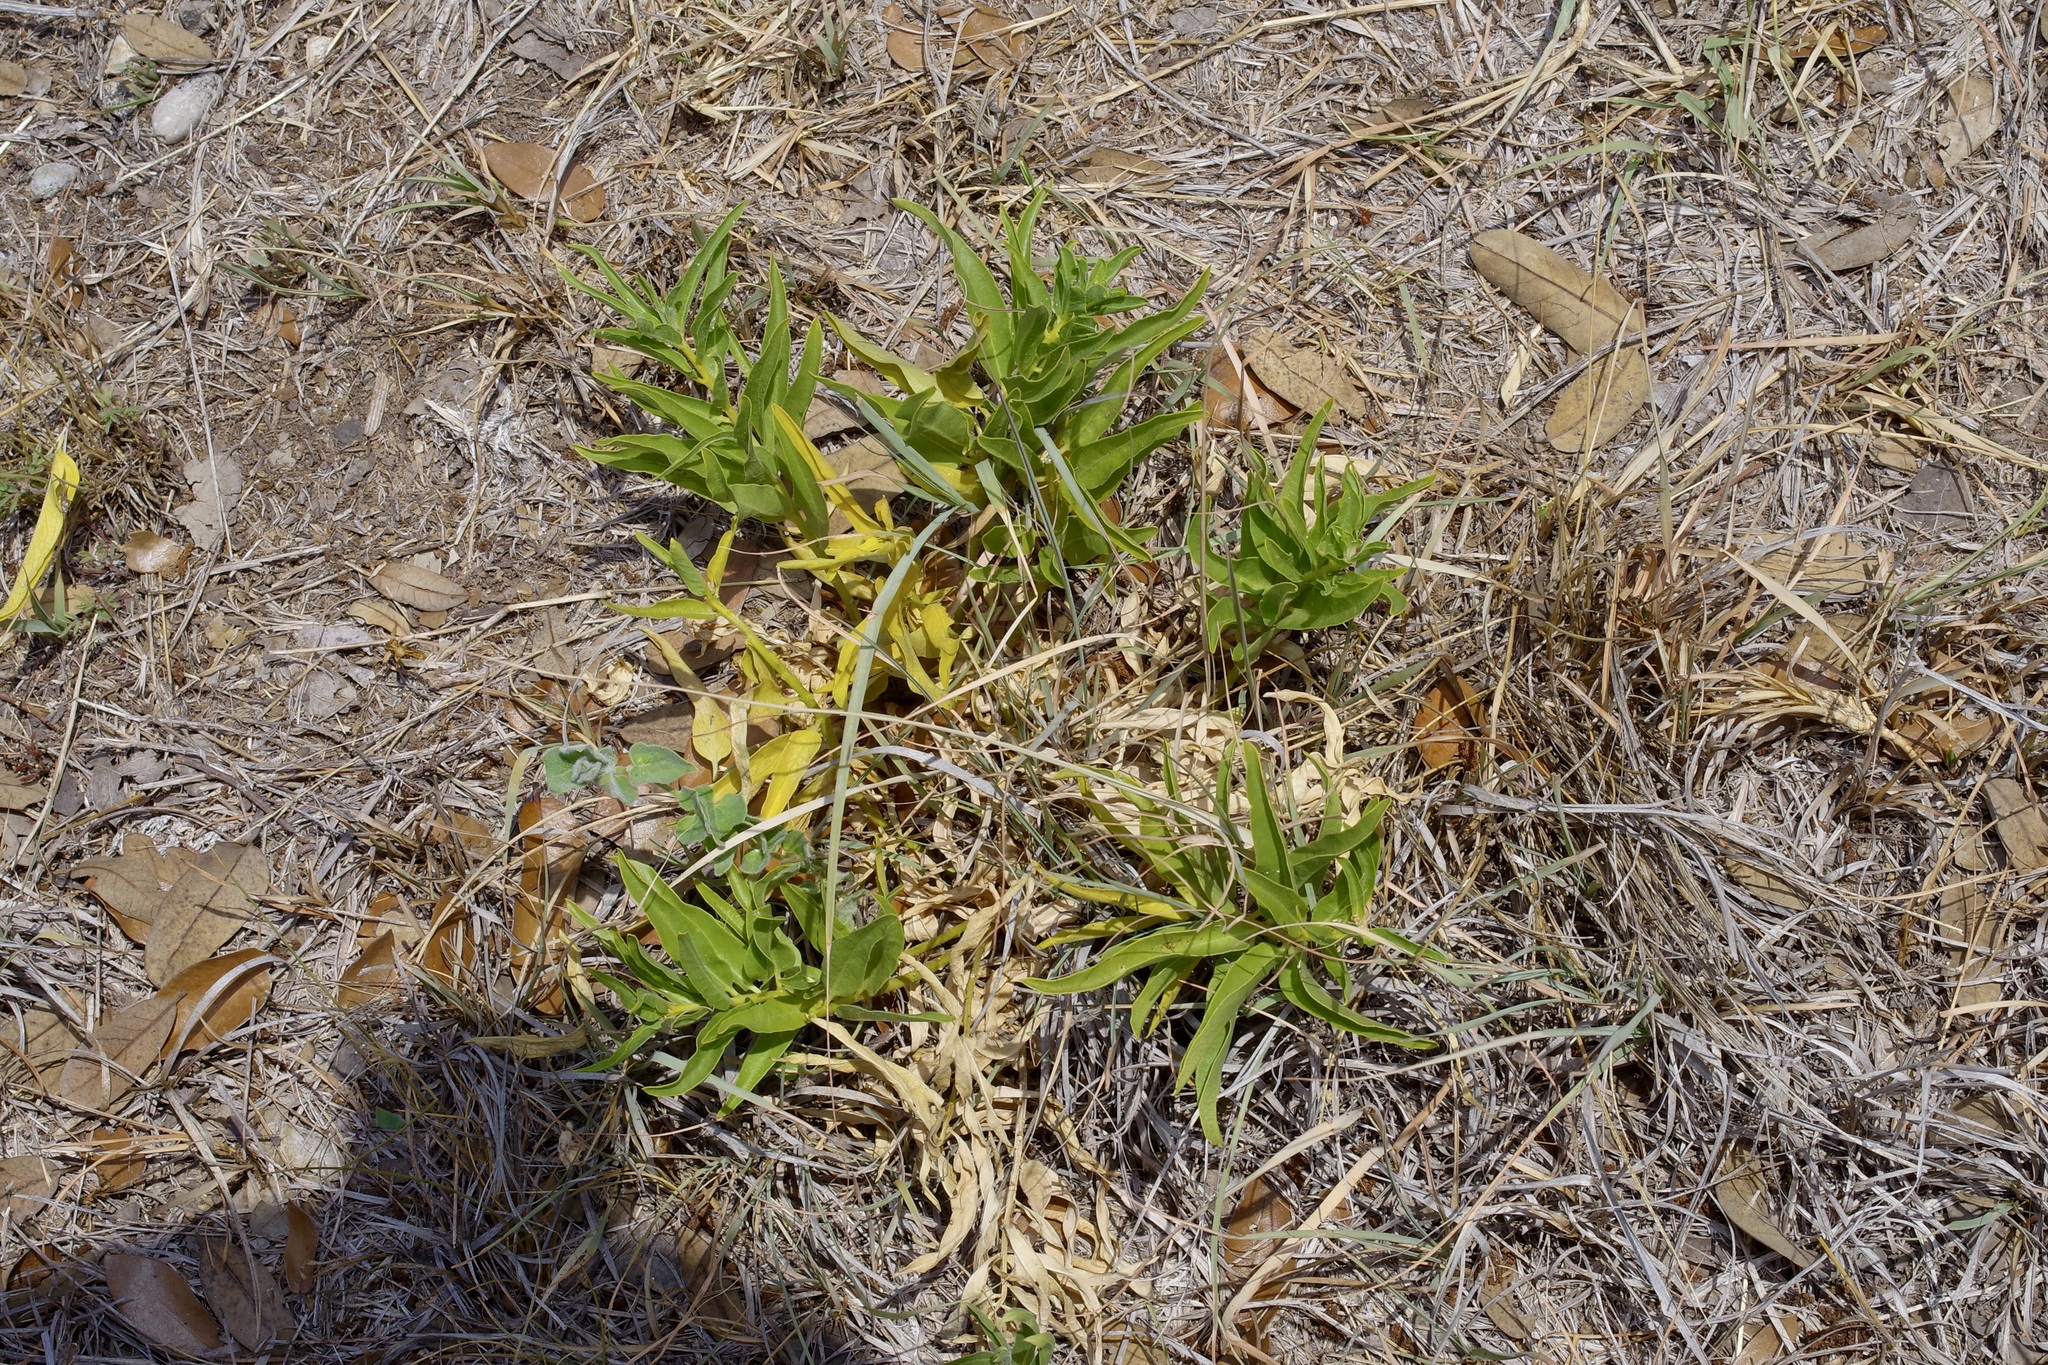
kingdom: Plantae
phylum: Tracheophyta
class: Magnoliopsida
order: Gentianales
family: Apocynaceae
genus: Asclepias
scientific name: Asclepias asperula
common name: Antelope horns
